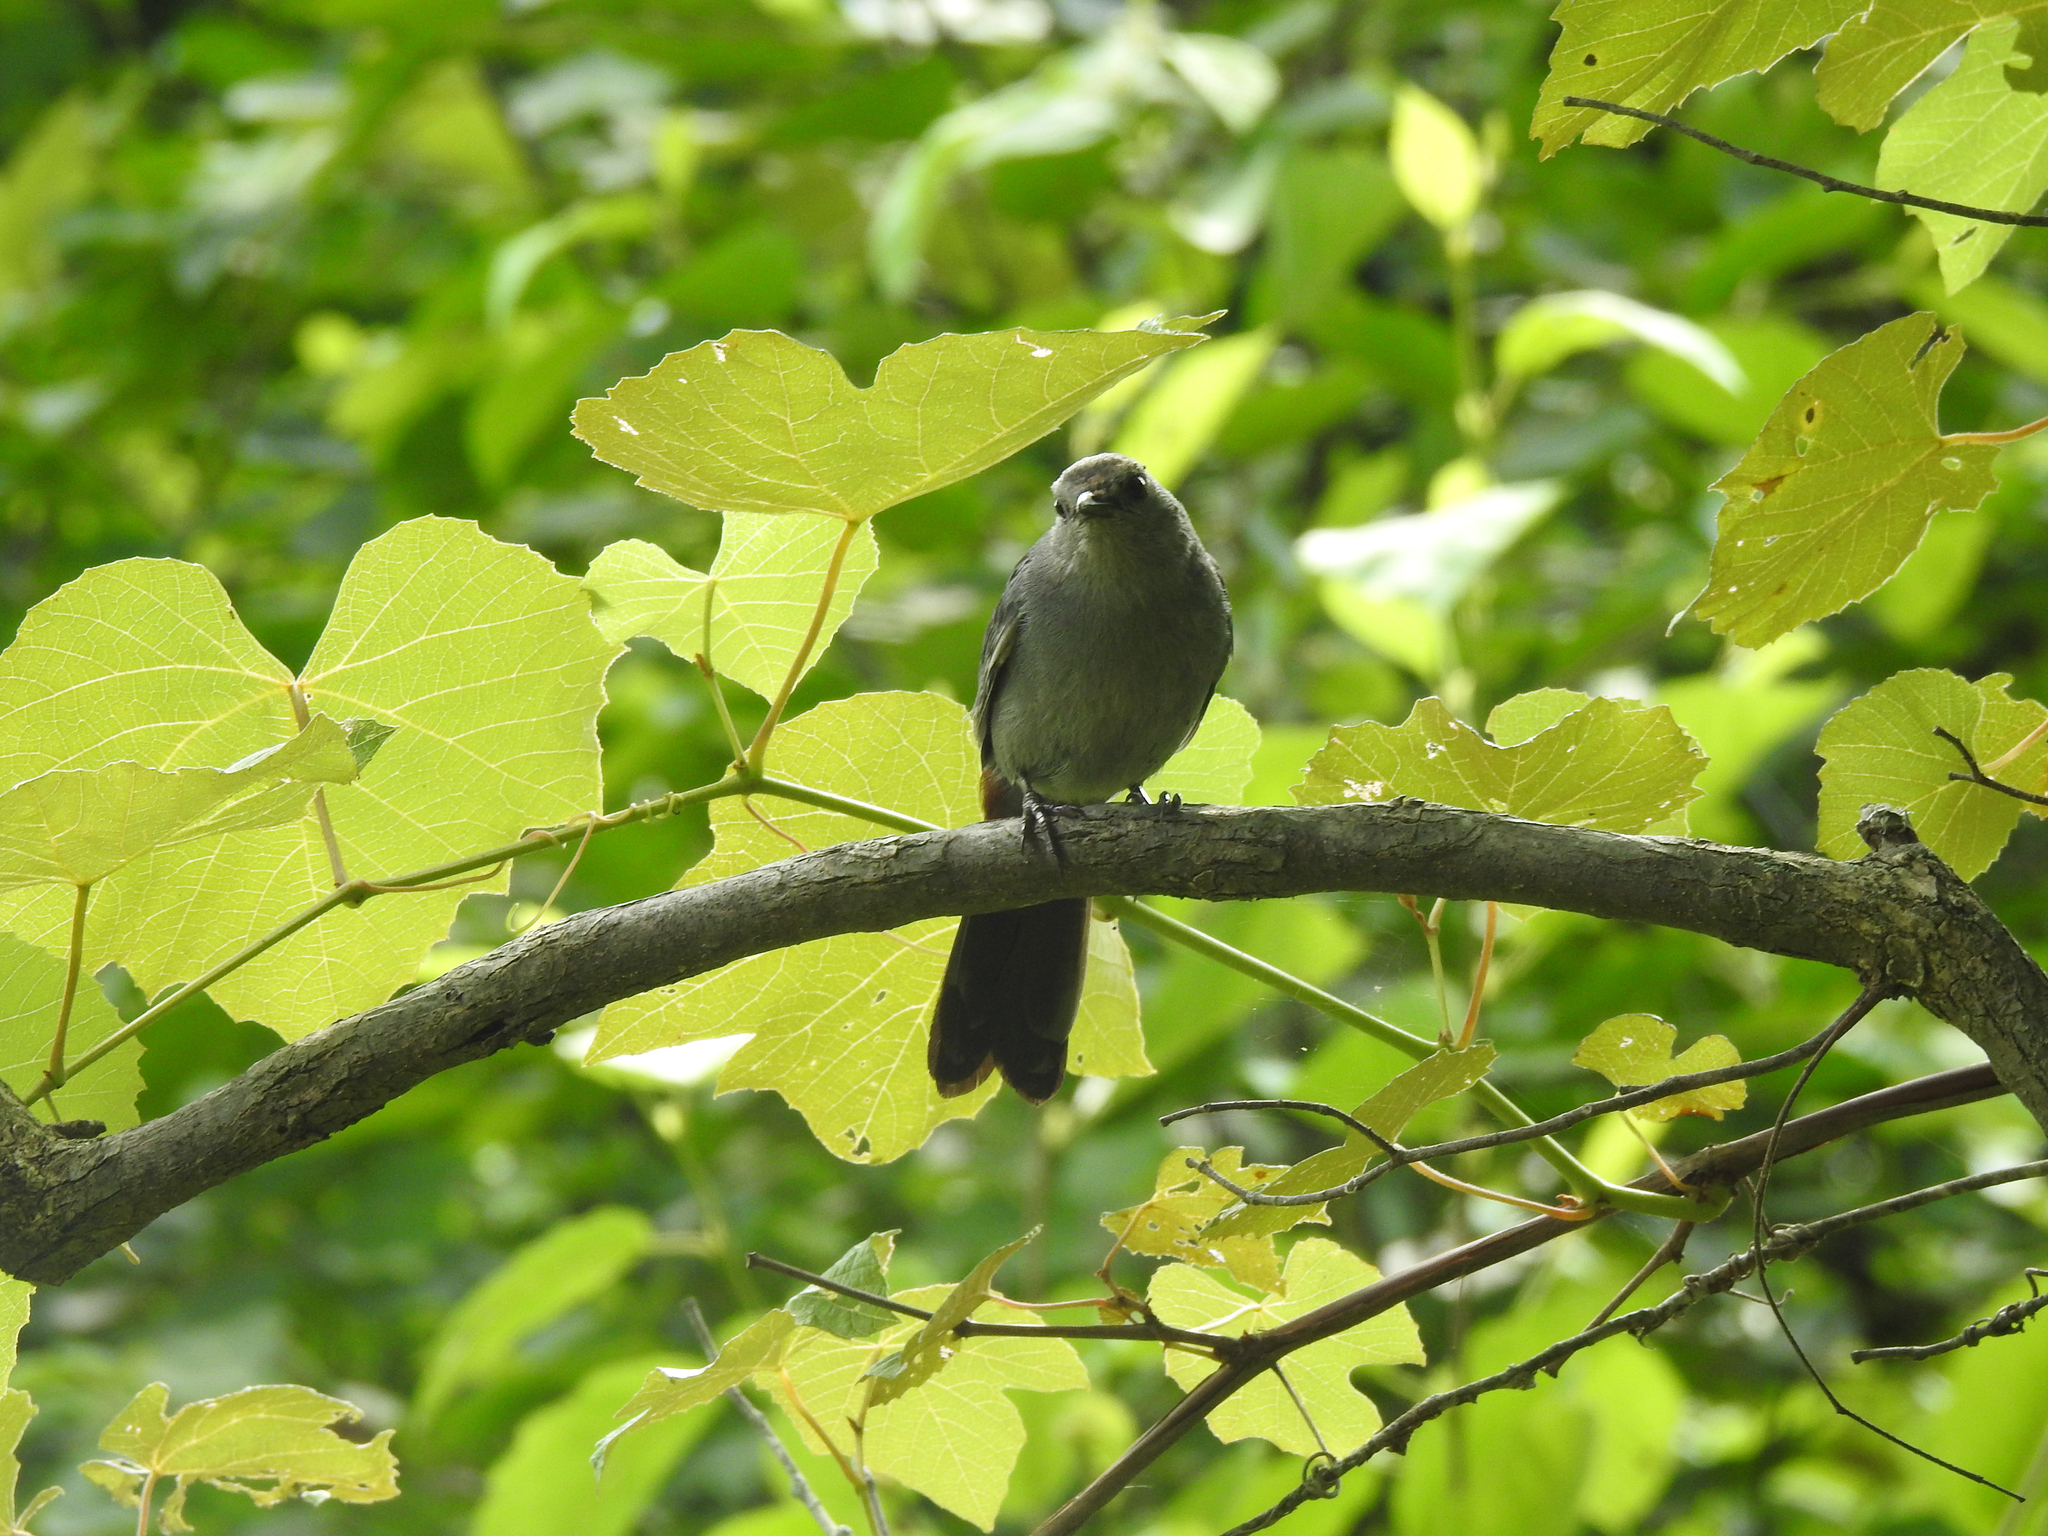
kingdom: Animalia
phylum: Chordata
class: Aves
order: Passeriformes
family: Mimidae
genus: Dumetella
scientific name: Dumetella carolinensis
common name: Gray catbird
